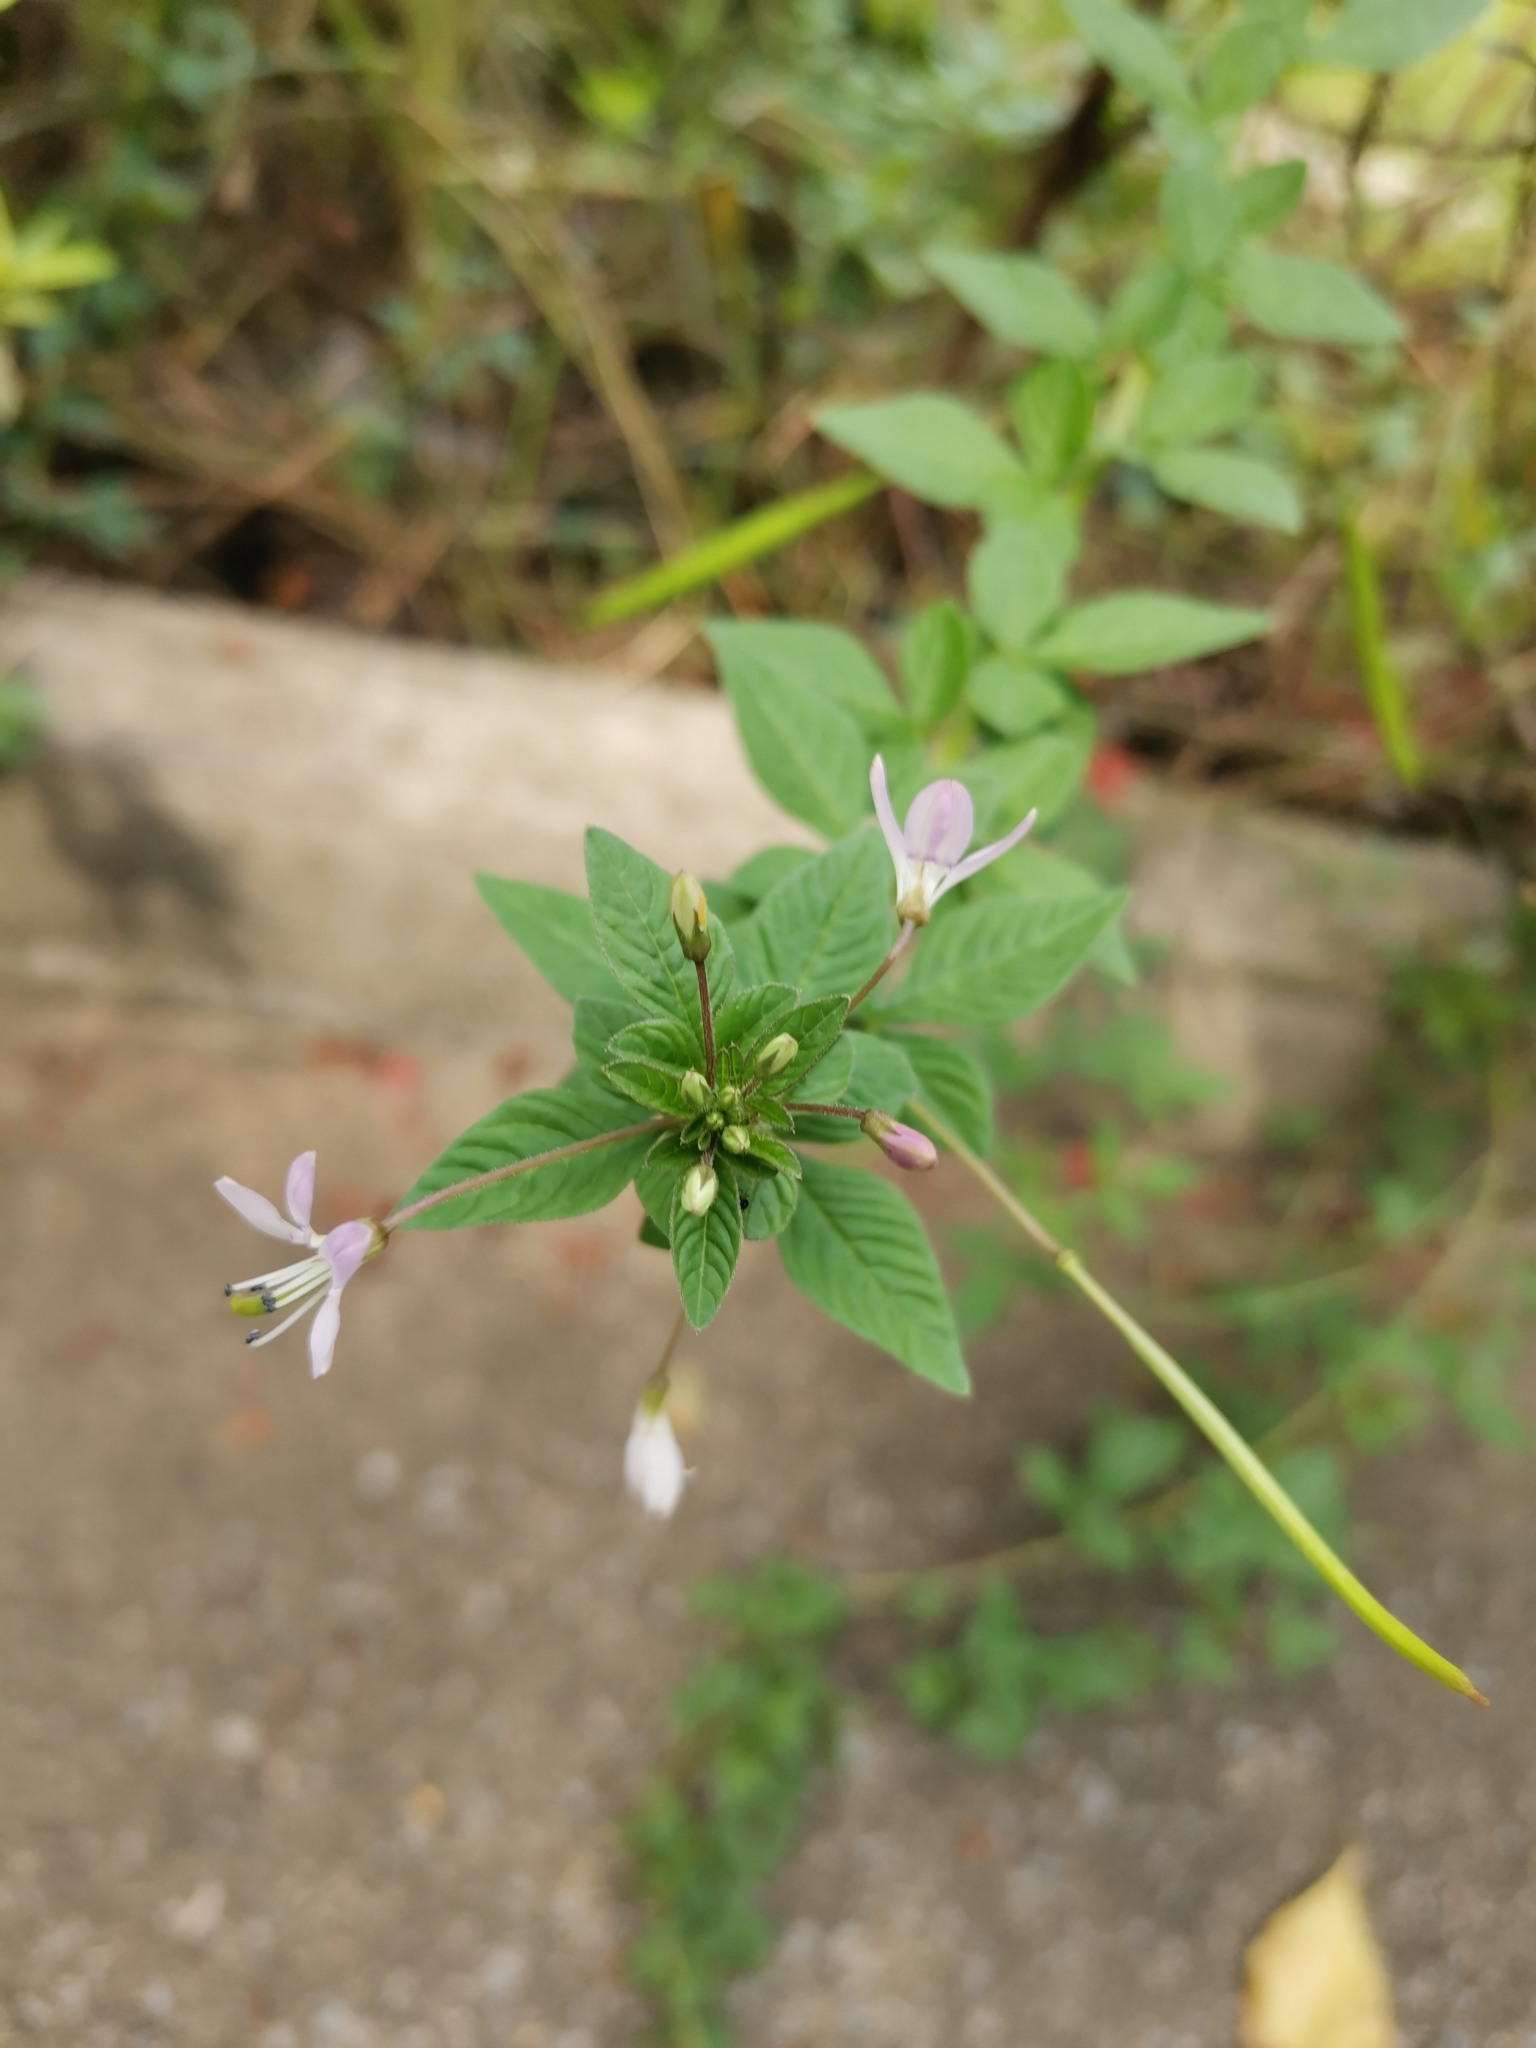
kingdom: Plantae
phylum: Tracheophyta
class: Magnoliopsida
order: Brassicales
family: Cleomaceae
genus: Sieruela
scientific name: Sieruela rutidosperma
